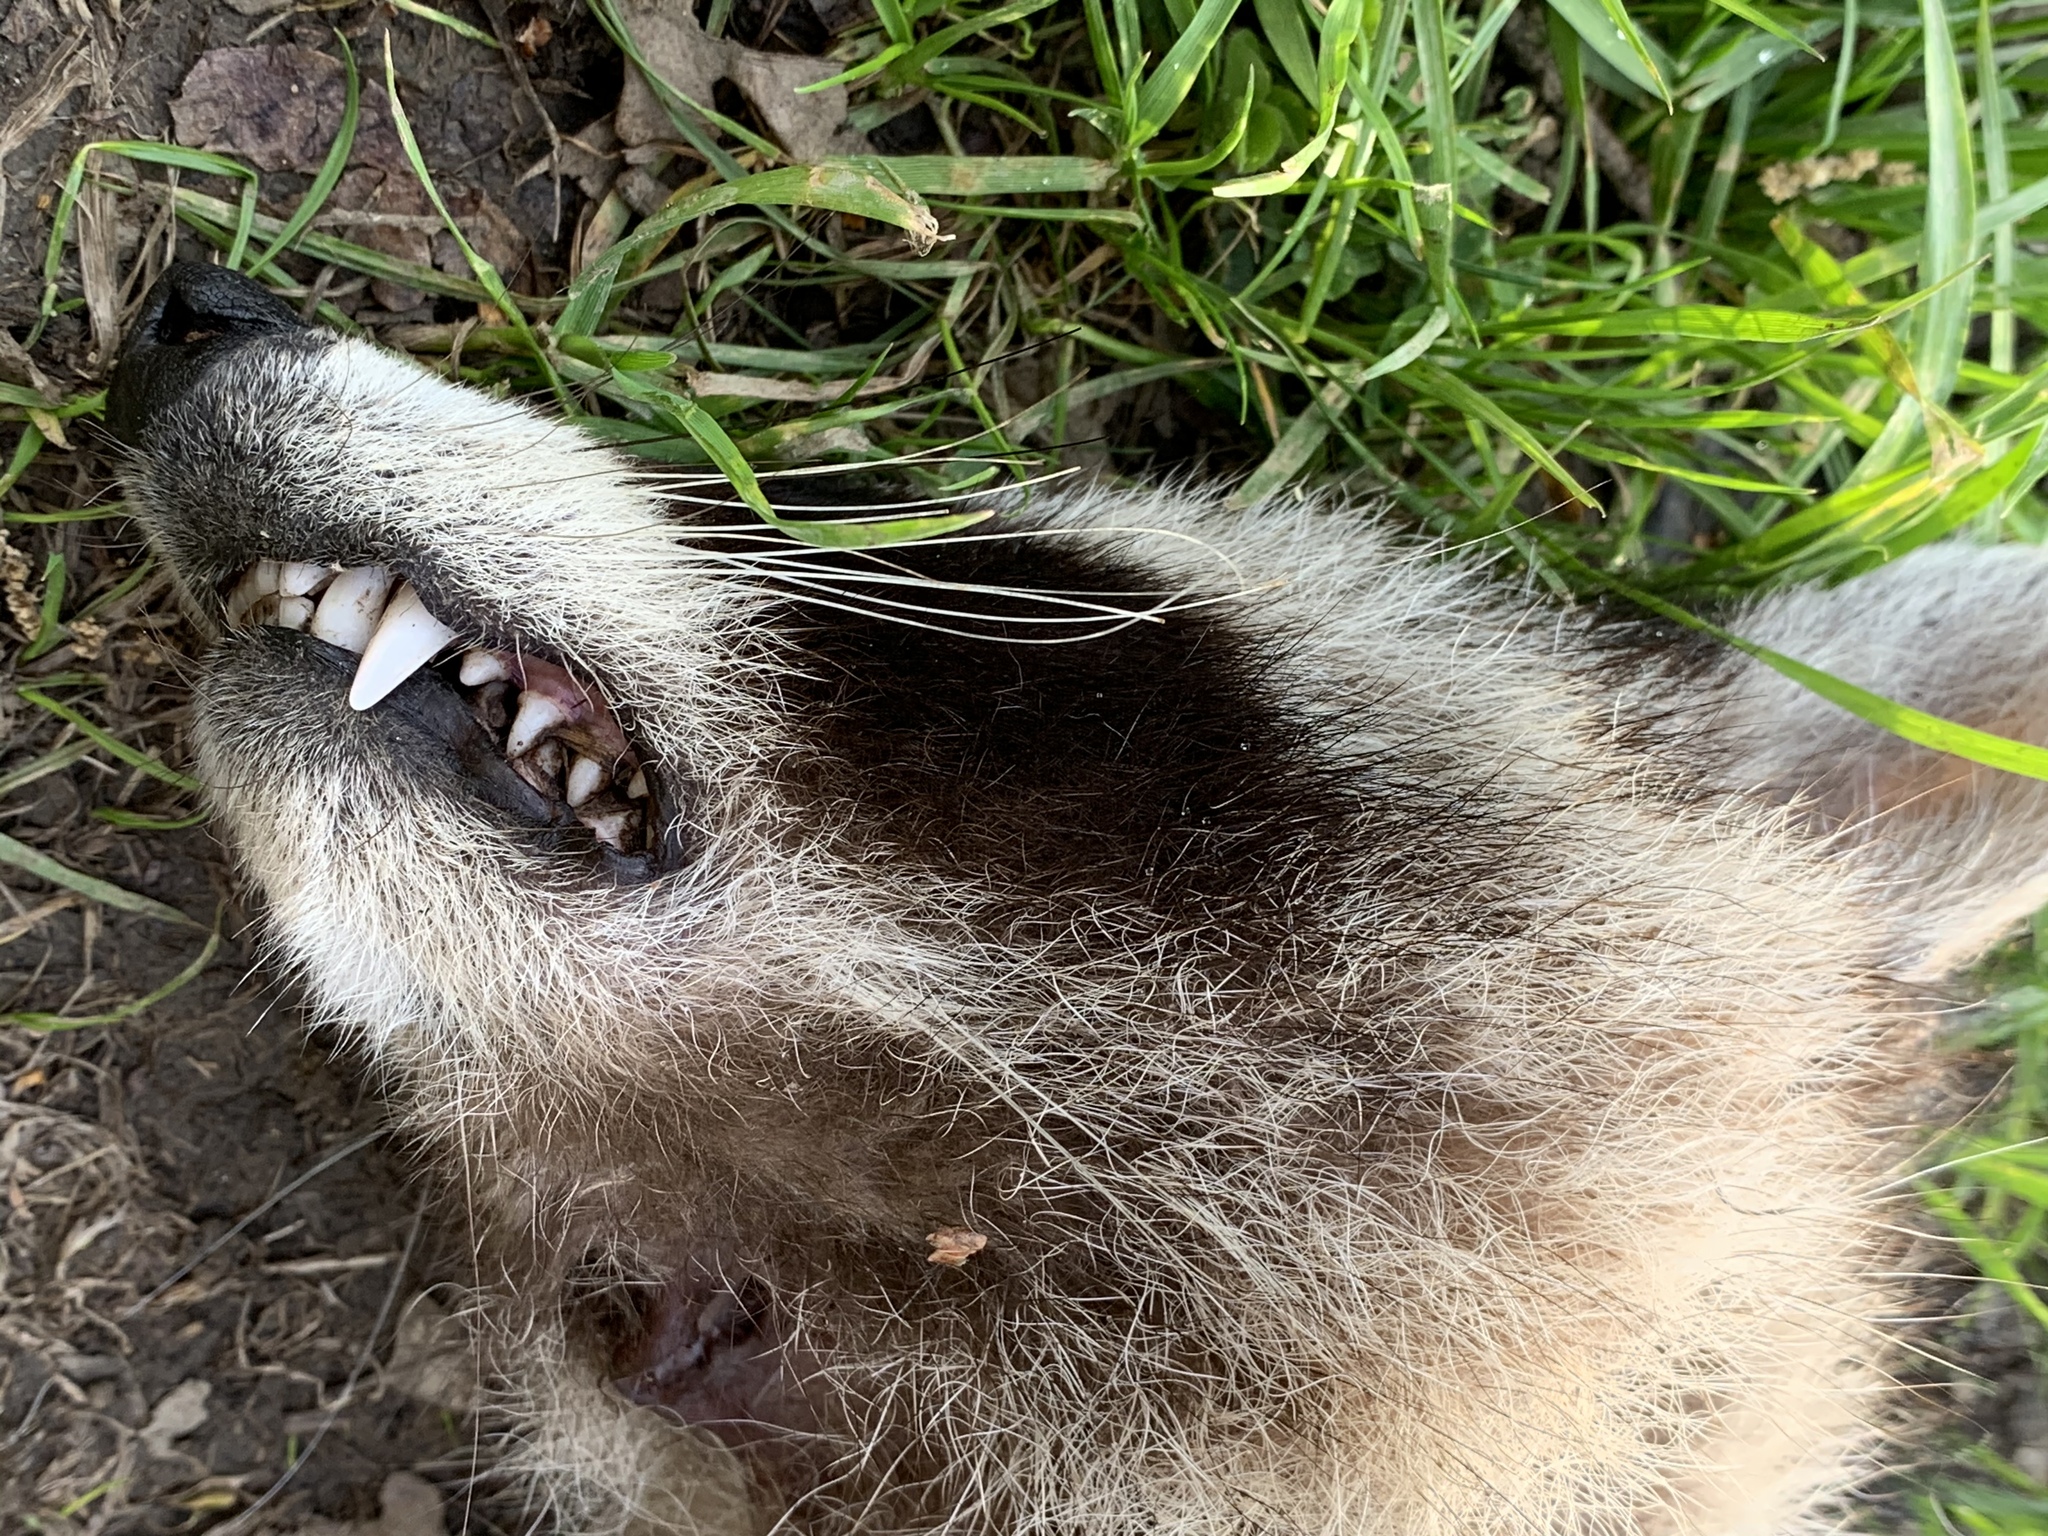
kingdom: Animalia
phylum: Chordata
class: Mammalia
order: Carnivora
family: Procyonidae
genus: Procyon
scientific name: Procyon lotor
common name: Raccoon
